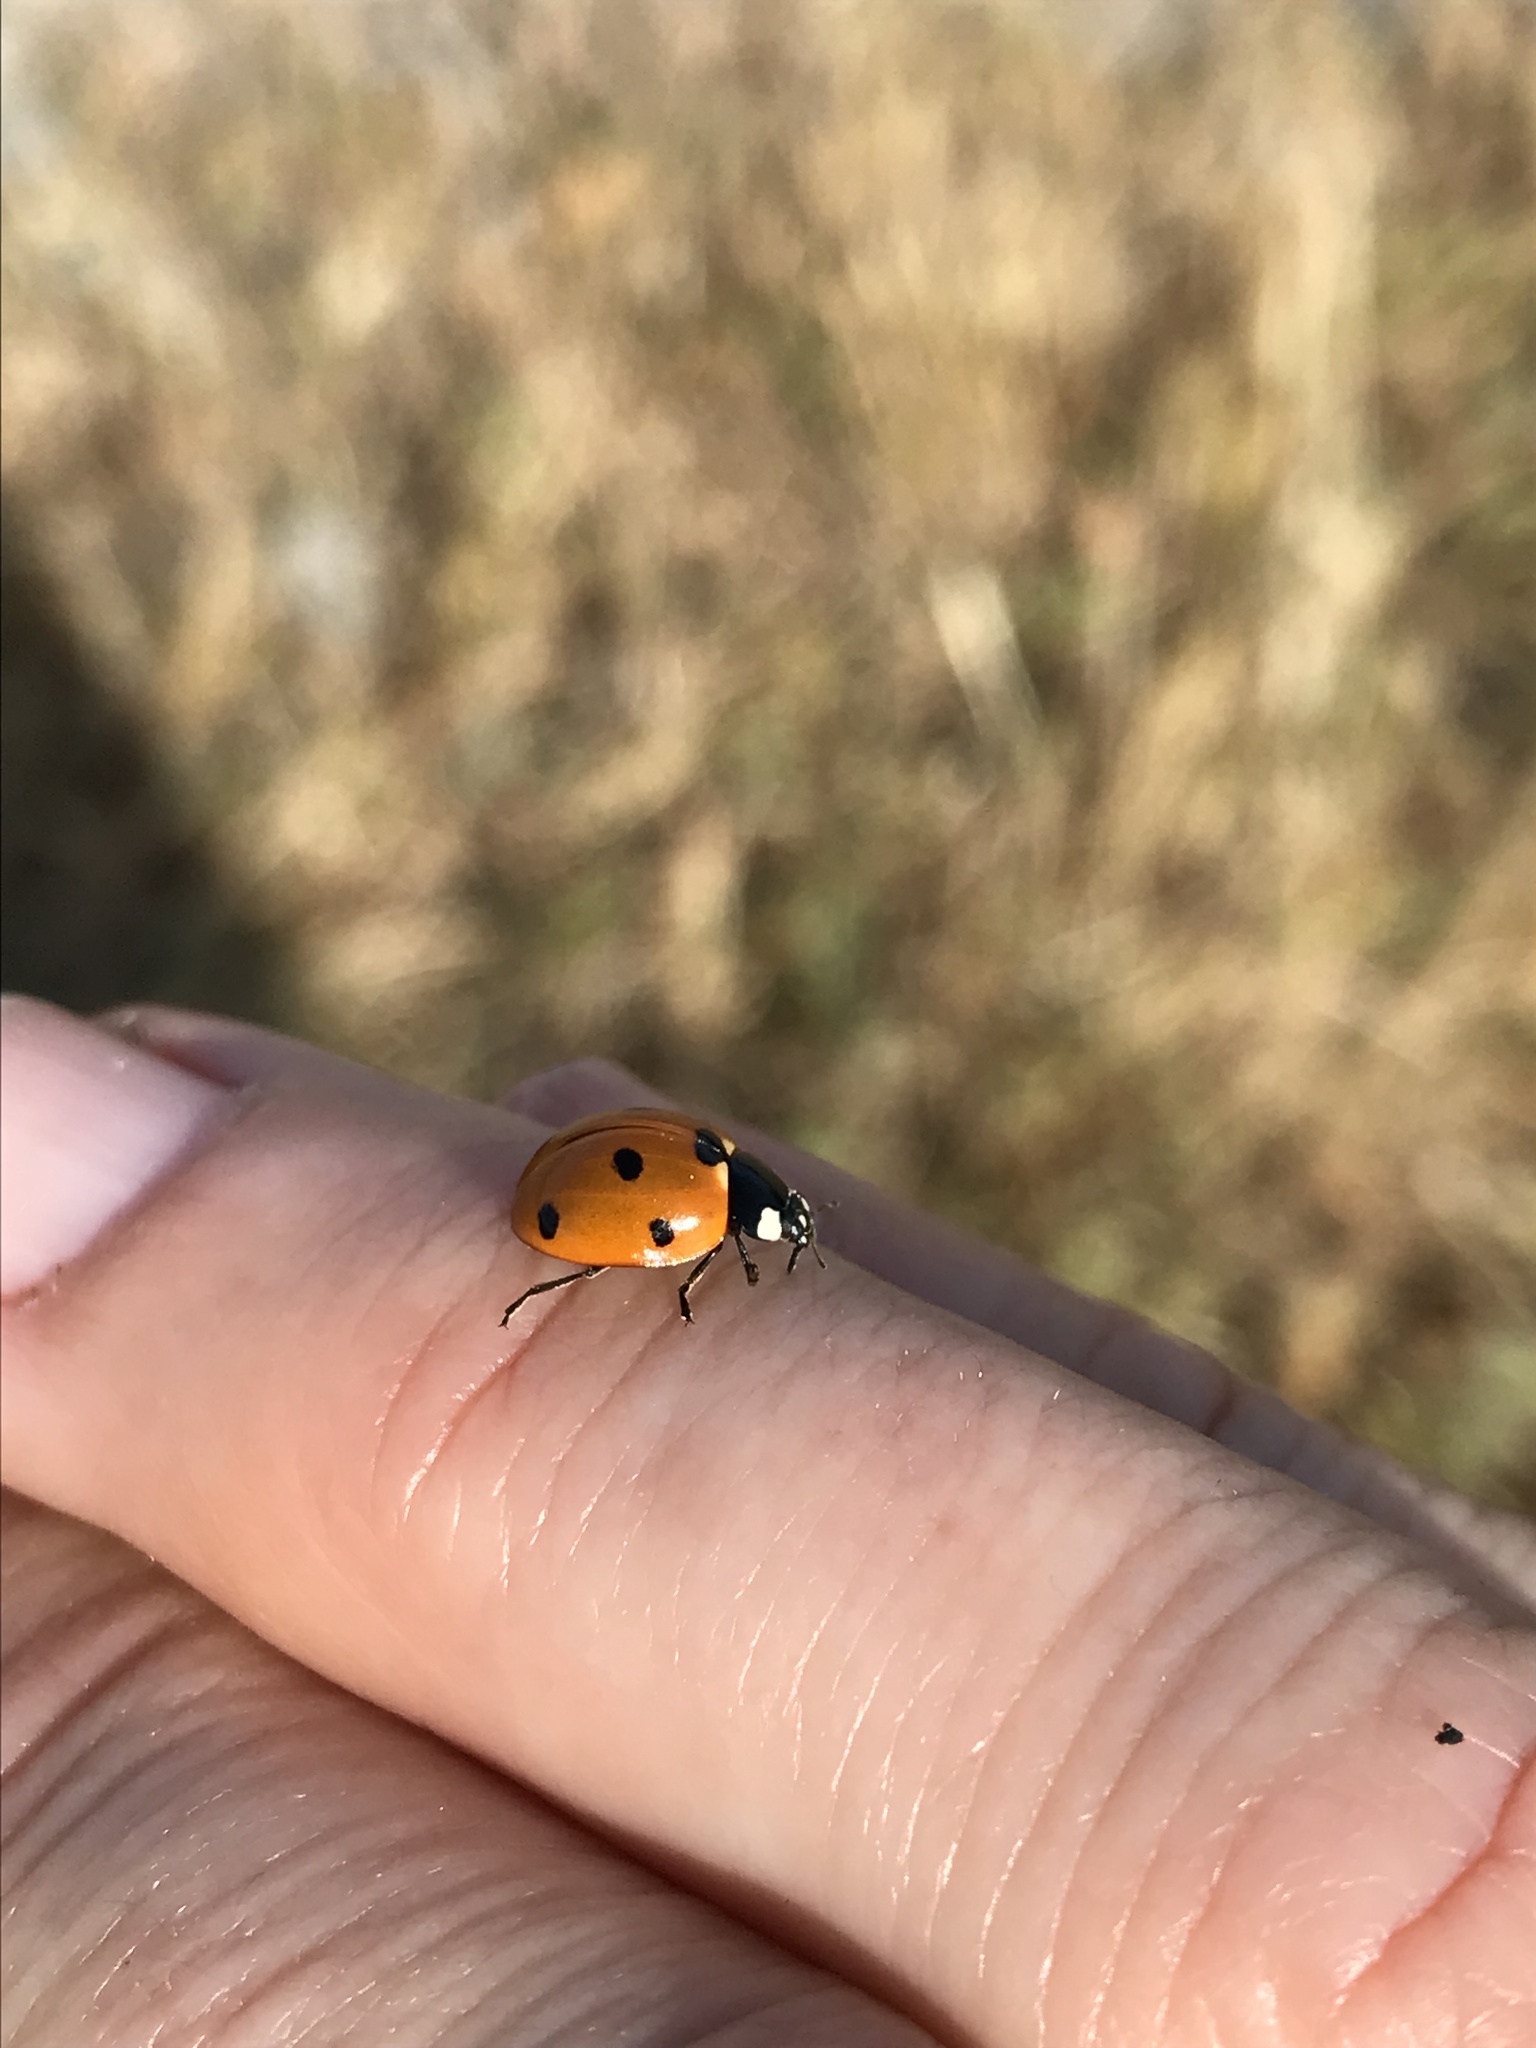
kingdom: Animalia
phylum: Arthropoda
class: Insecta
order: Coleoptera
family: Coccinellidae
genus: Coccinella
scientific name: Coccinella septempunctata
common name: Sevenspotted lady beetle
